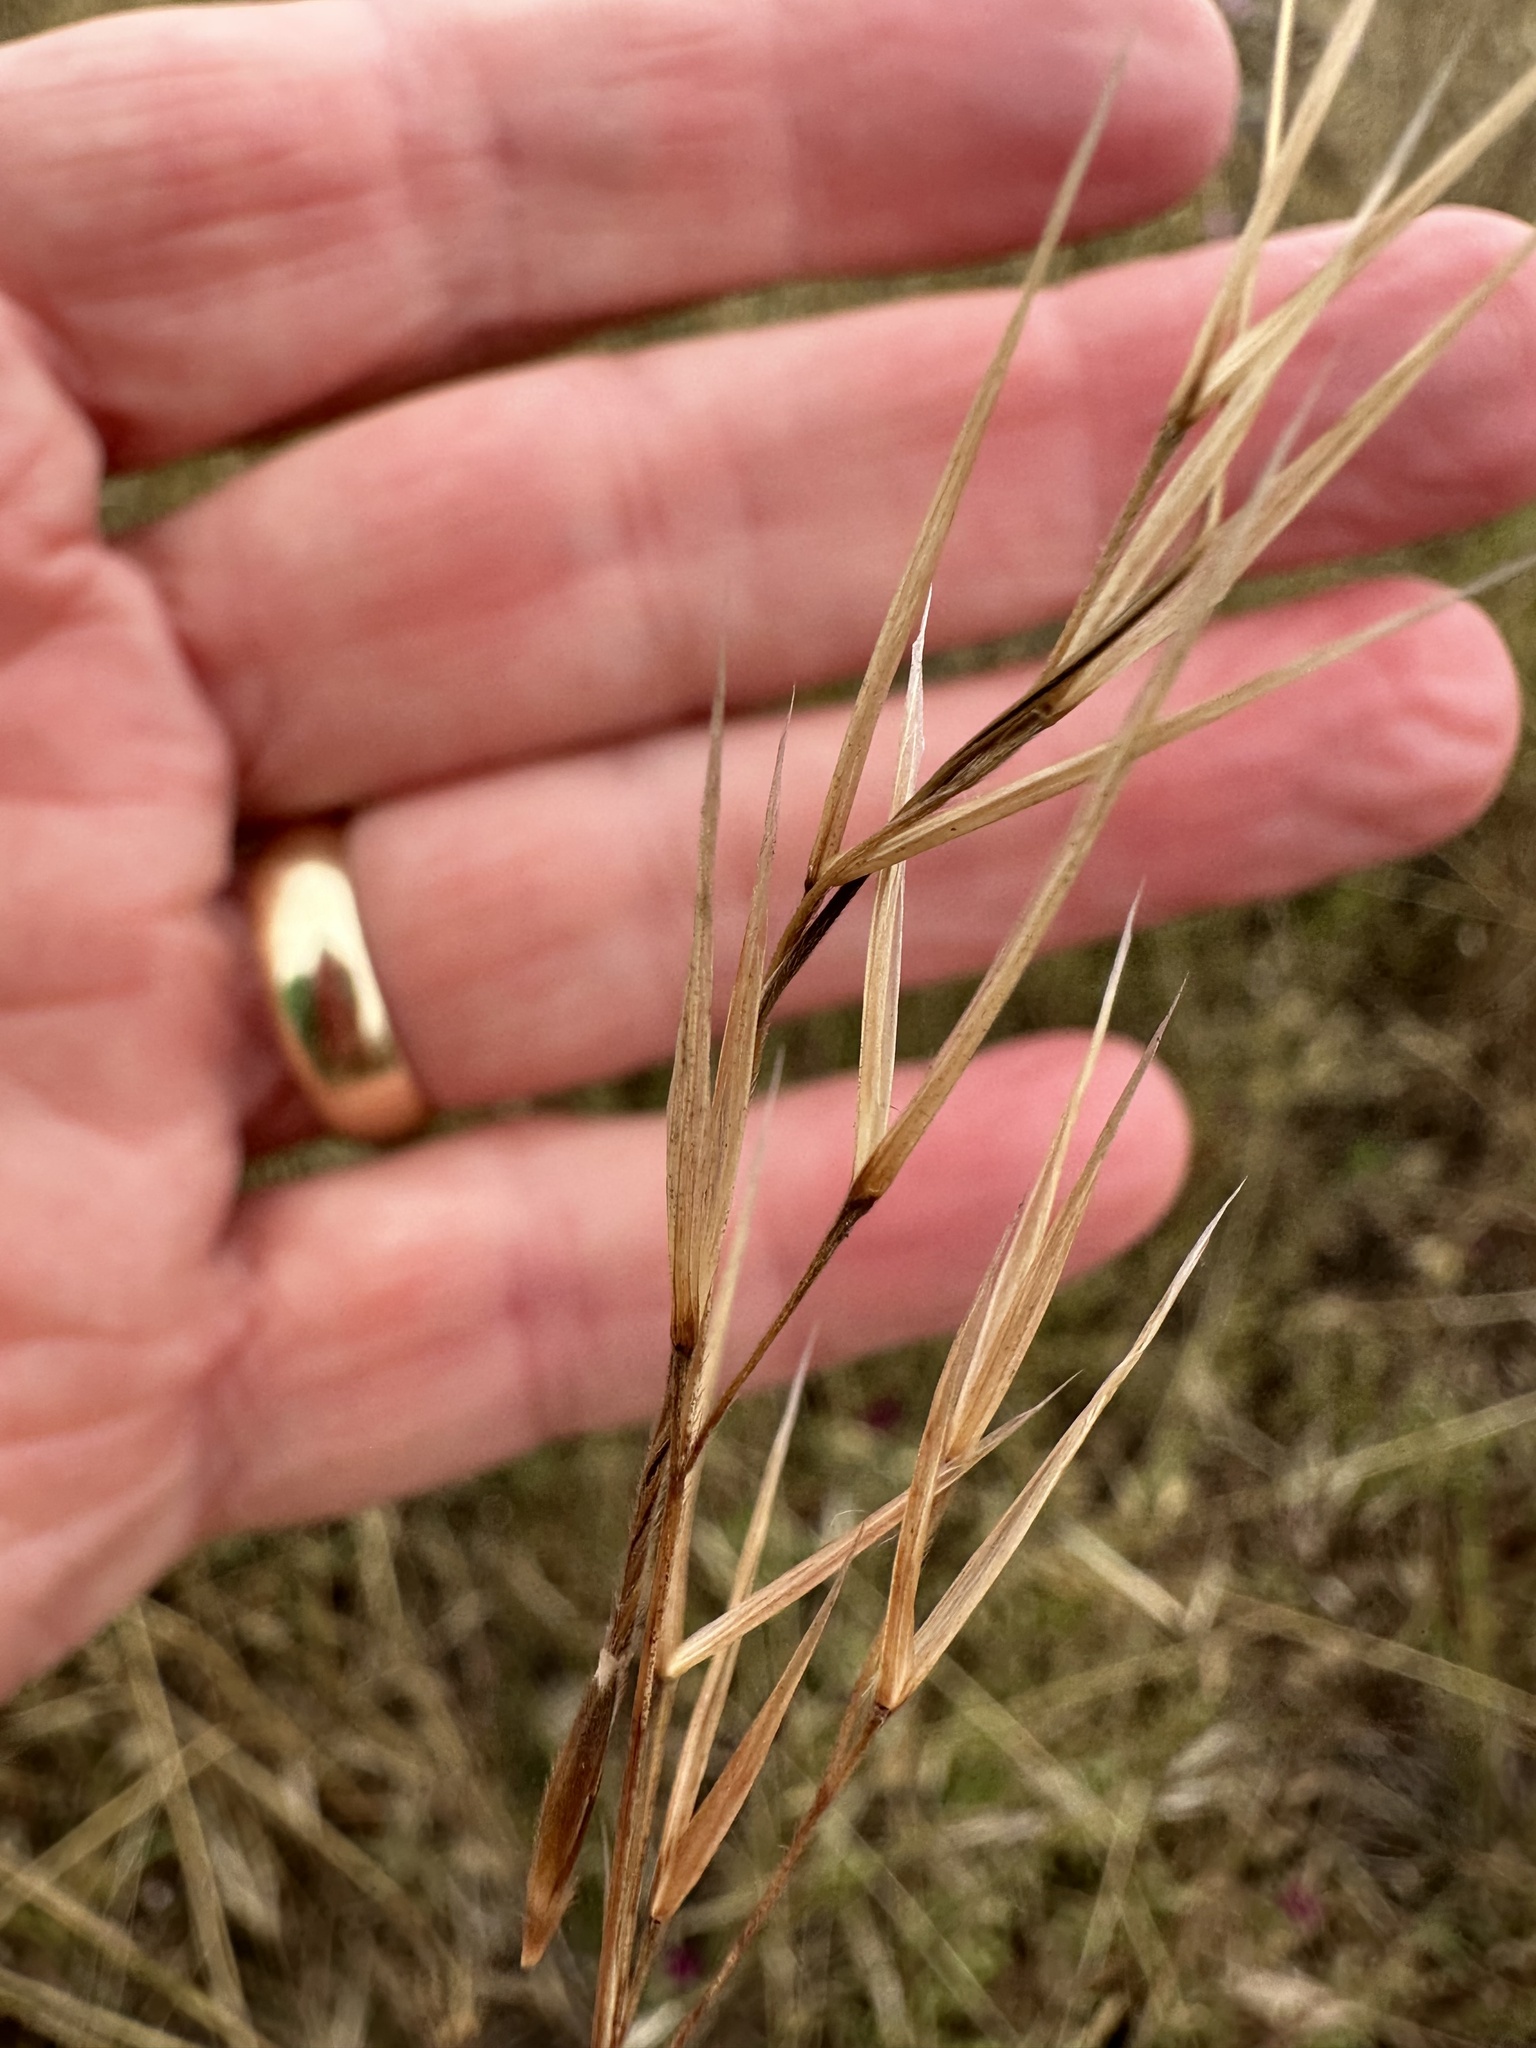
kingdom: Plantae
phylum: Tracheophyta
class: Liliopsida
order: Poales
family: Poaceae
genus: Nassella
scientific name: Nassella pulchra
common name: Purple needlegrass
